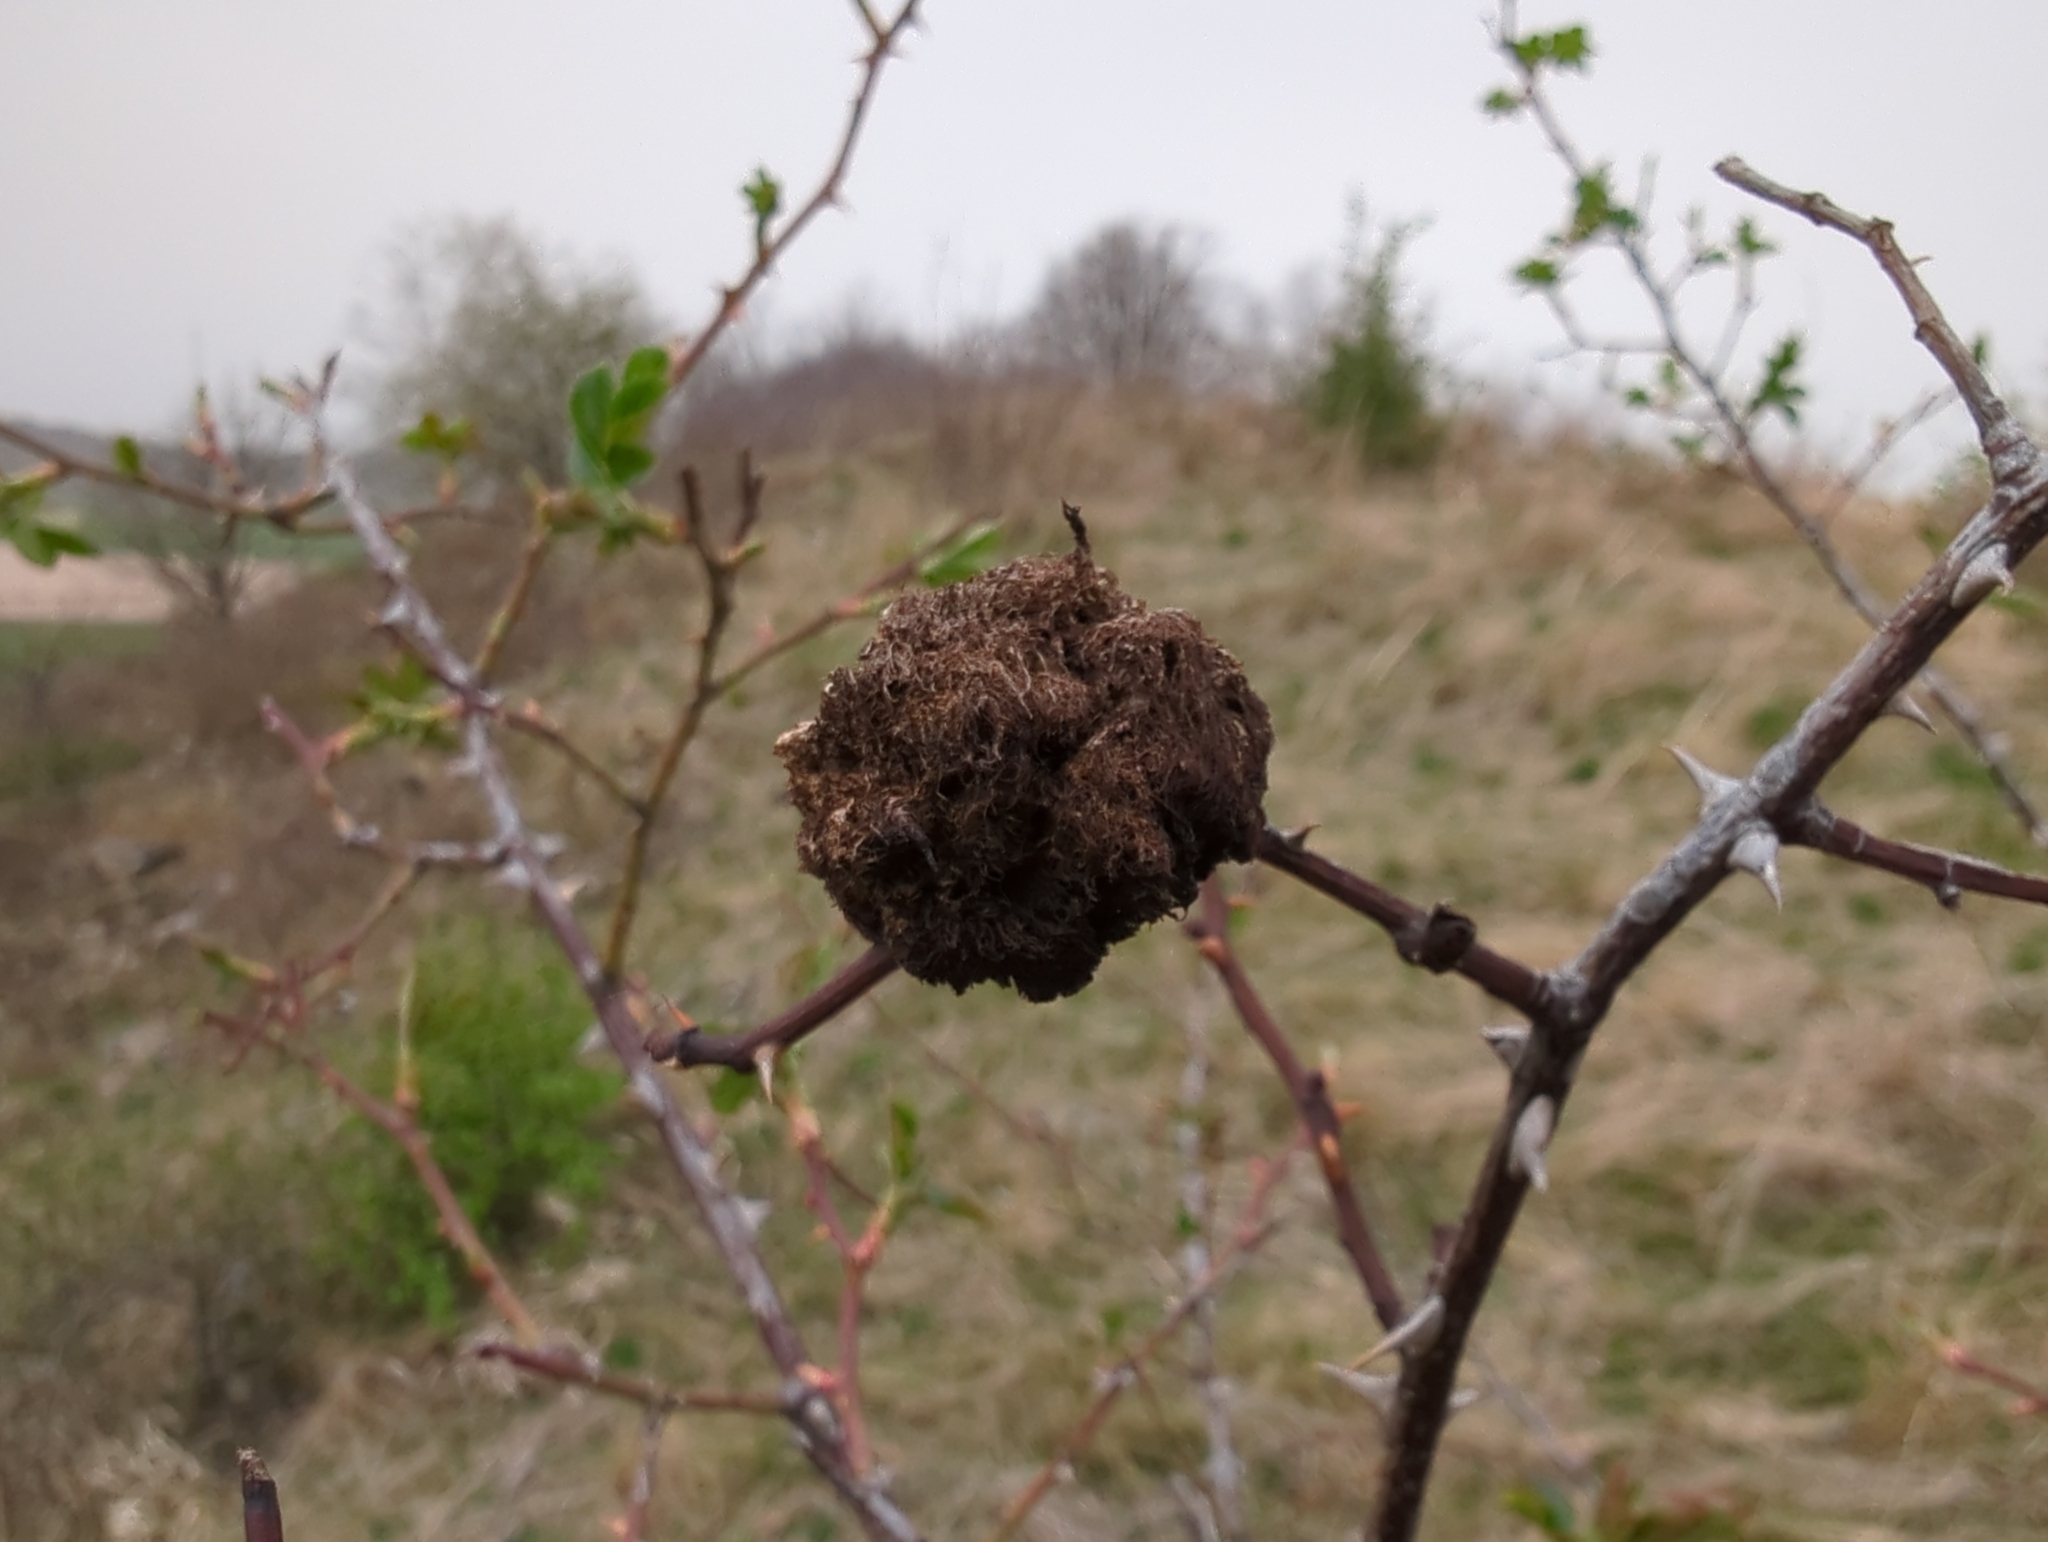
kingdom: Animalia
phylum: Arthropoda
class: Insecta
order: Hymenoptera
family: Cynipidae
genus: Diplolepis
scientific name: Diplolepis rosae
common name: Bedeguar gall
